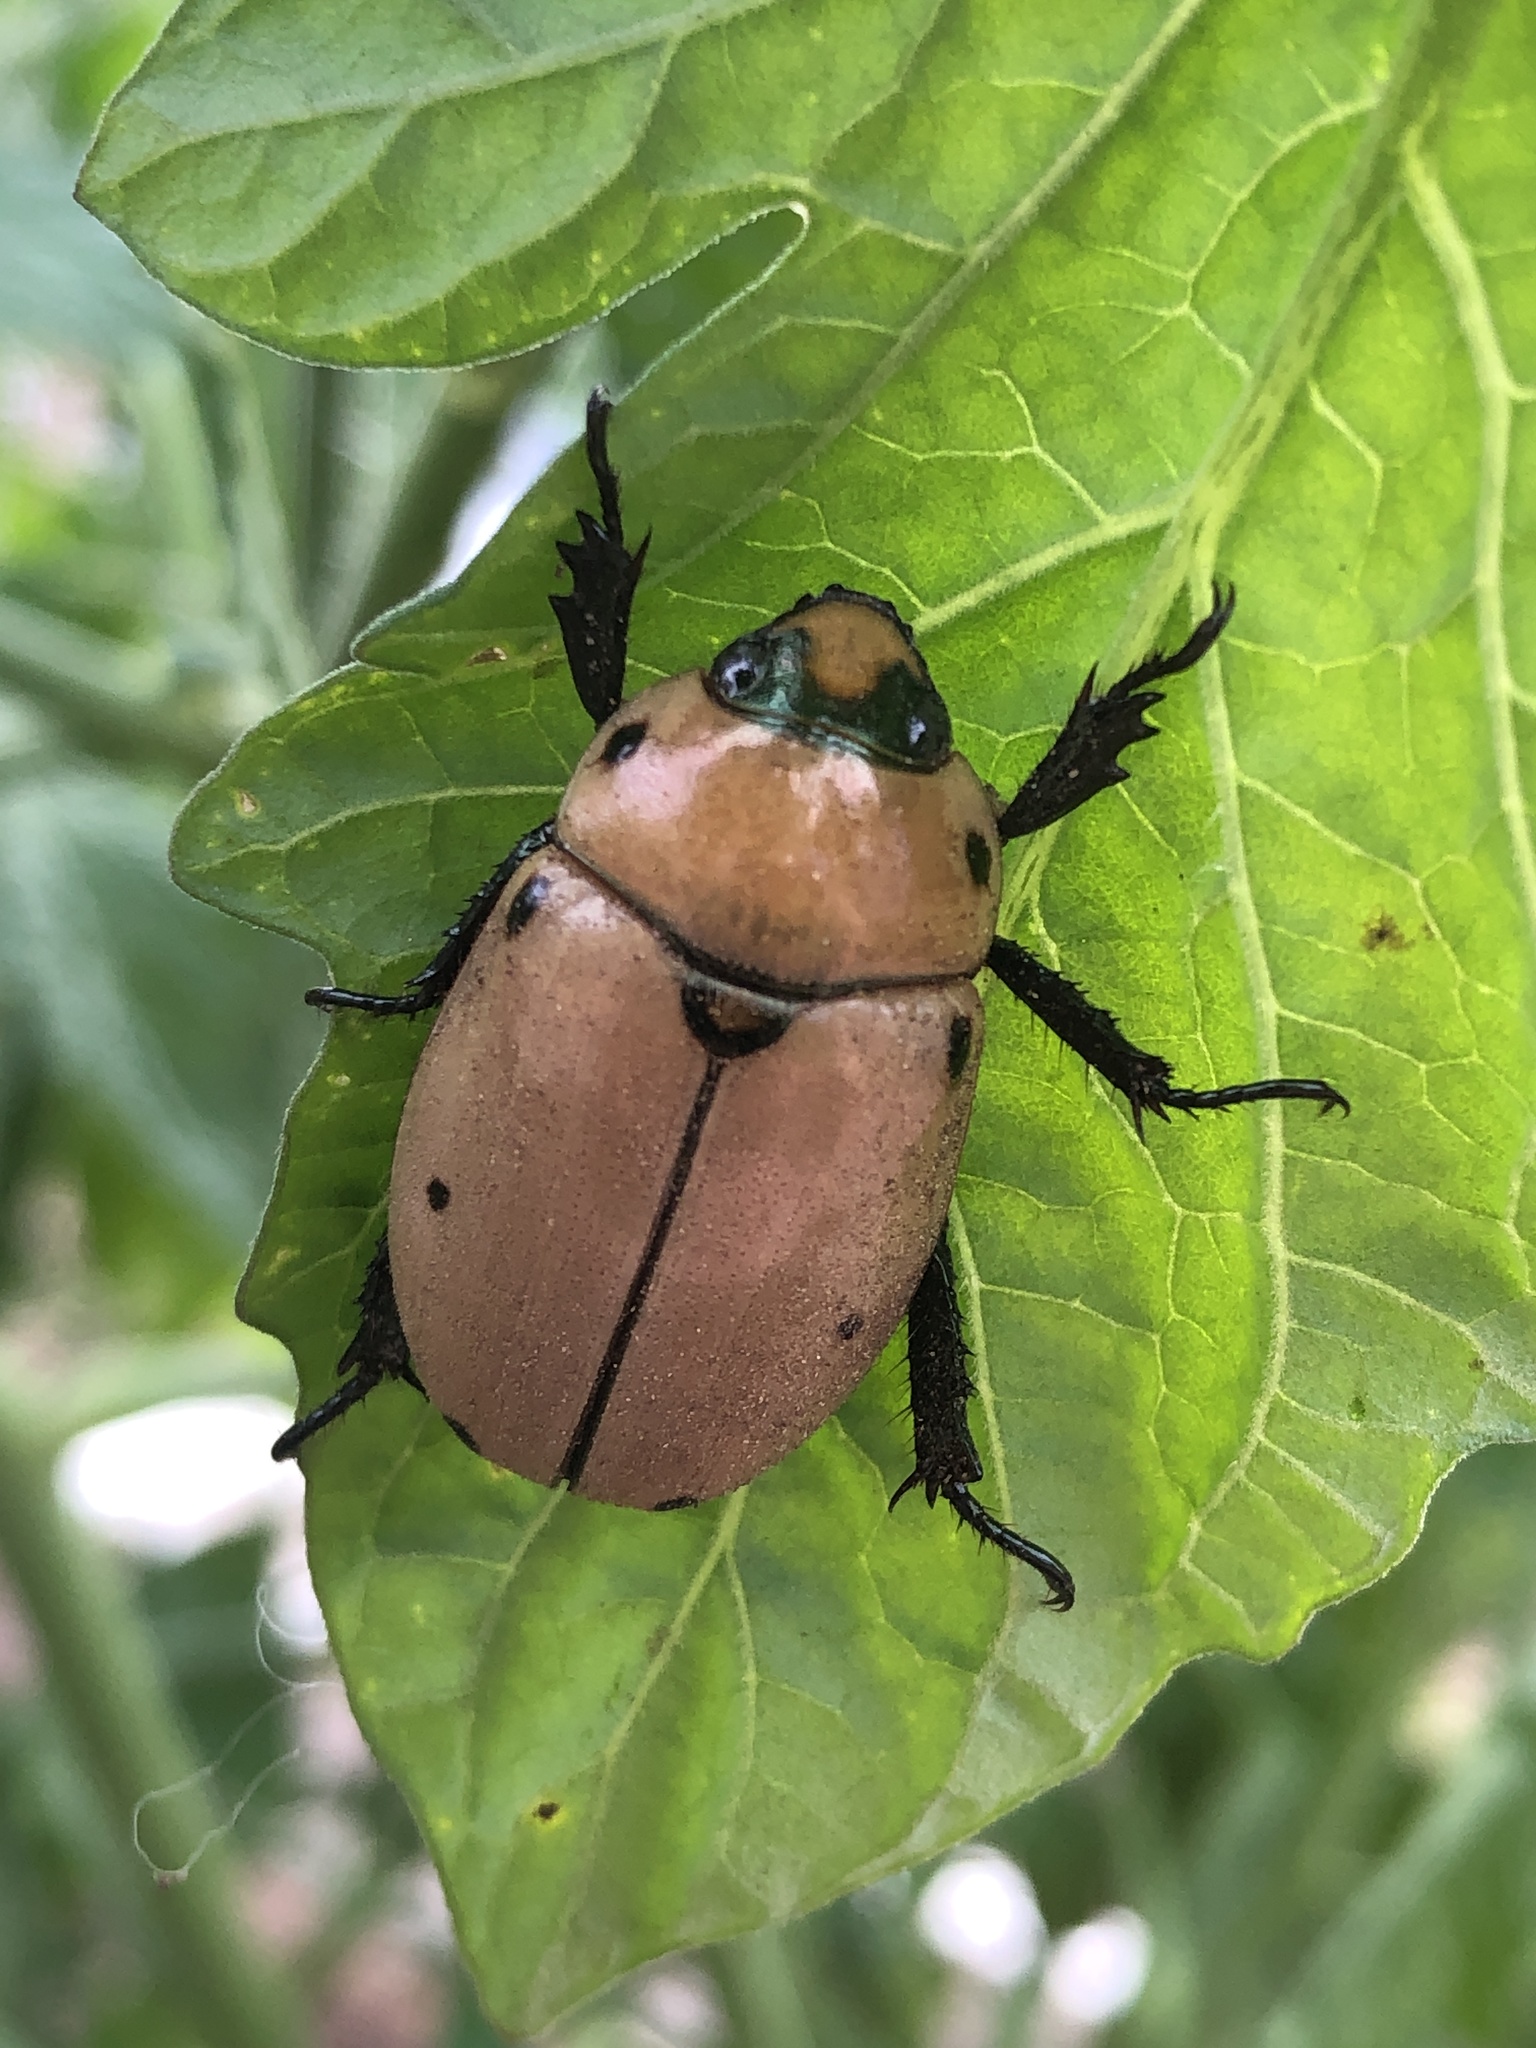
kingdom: Animalia
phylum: Arthropoda
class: Insecta
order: Coleoptera
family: Scarabaeidae
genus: Pelidnota
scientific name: Pelidnota punctata
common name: Grapevine beetle
